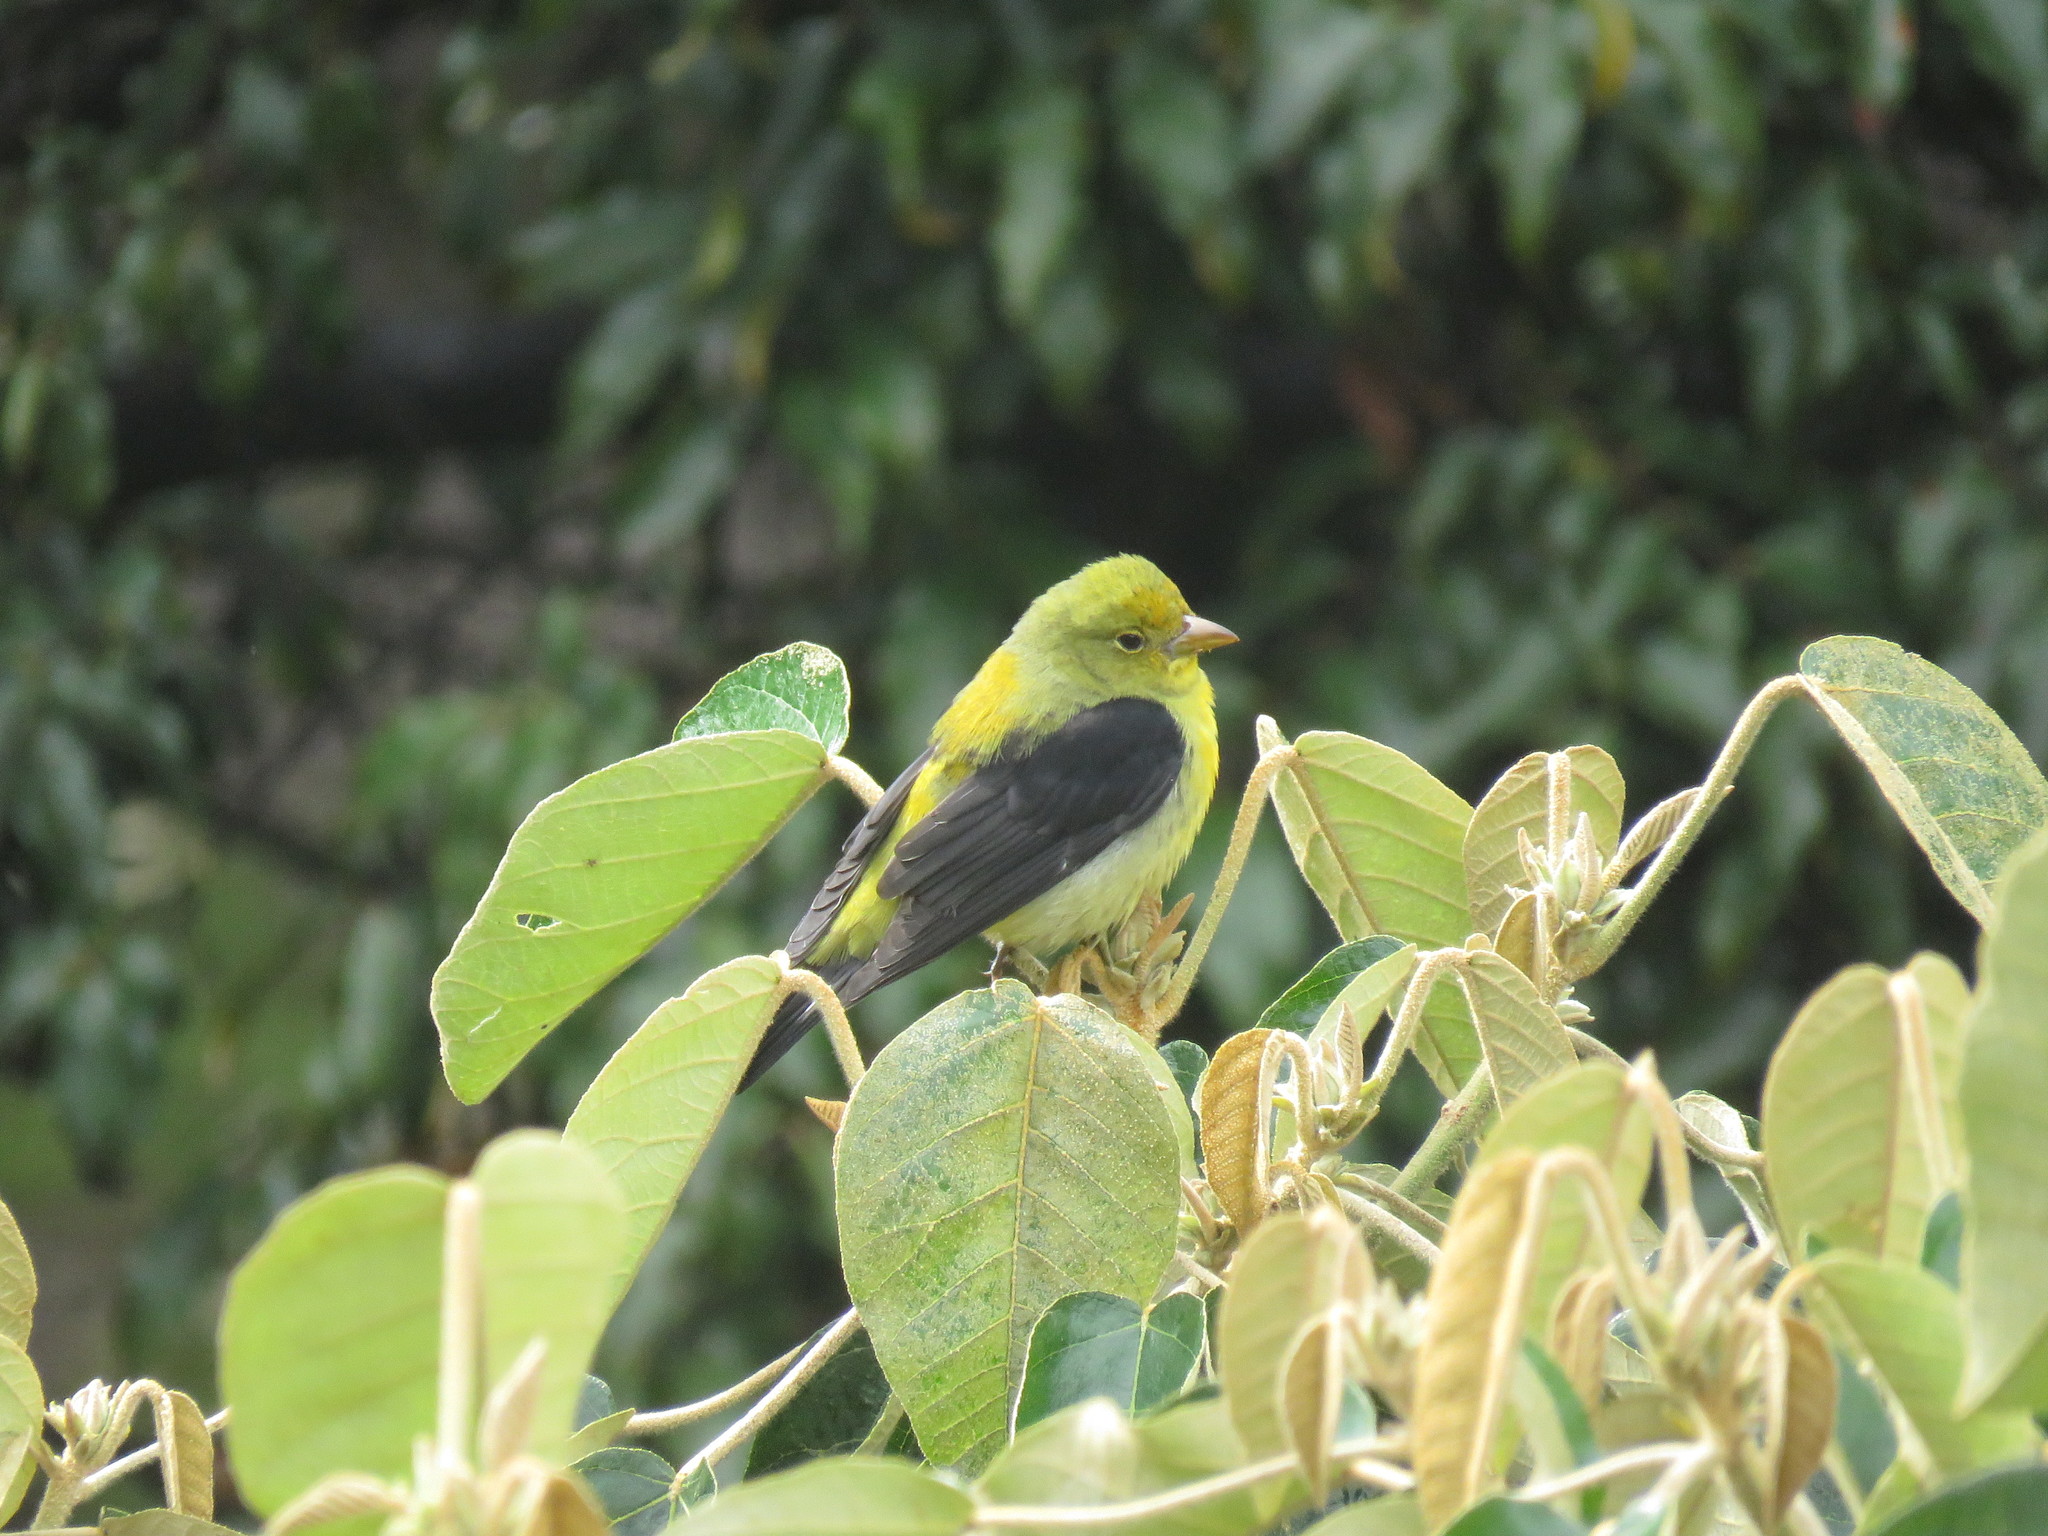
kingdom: Animalia
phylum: Chordata
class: Aves
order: Passeriformes
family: Cardinalidae
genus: Piranga
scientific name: Piranga olivacea
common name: Scarlet tanager
